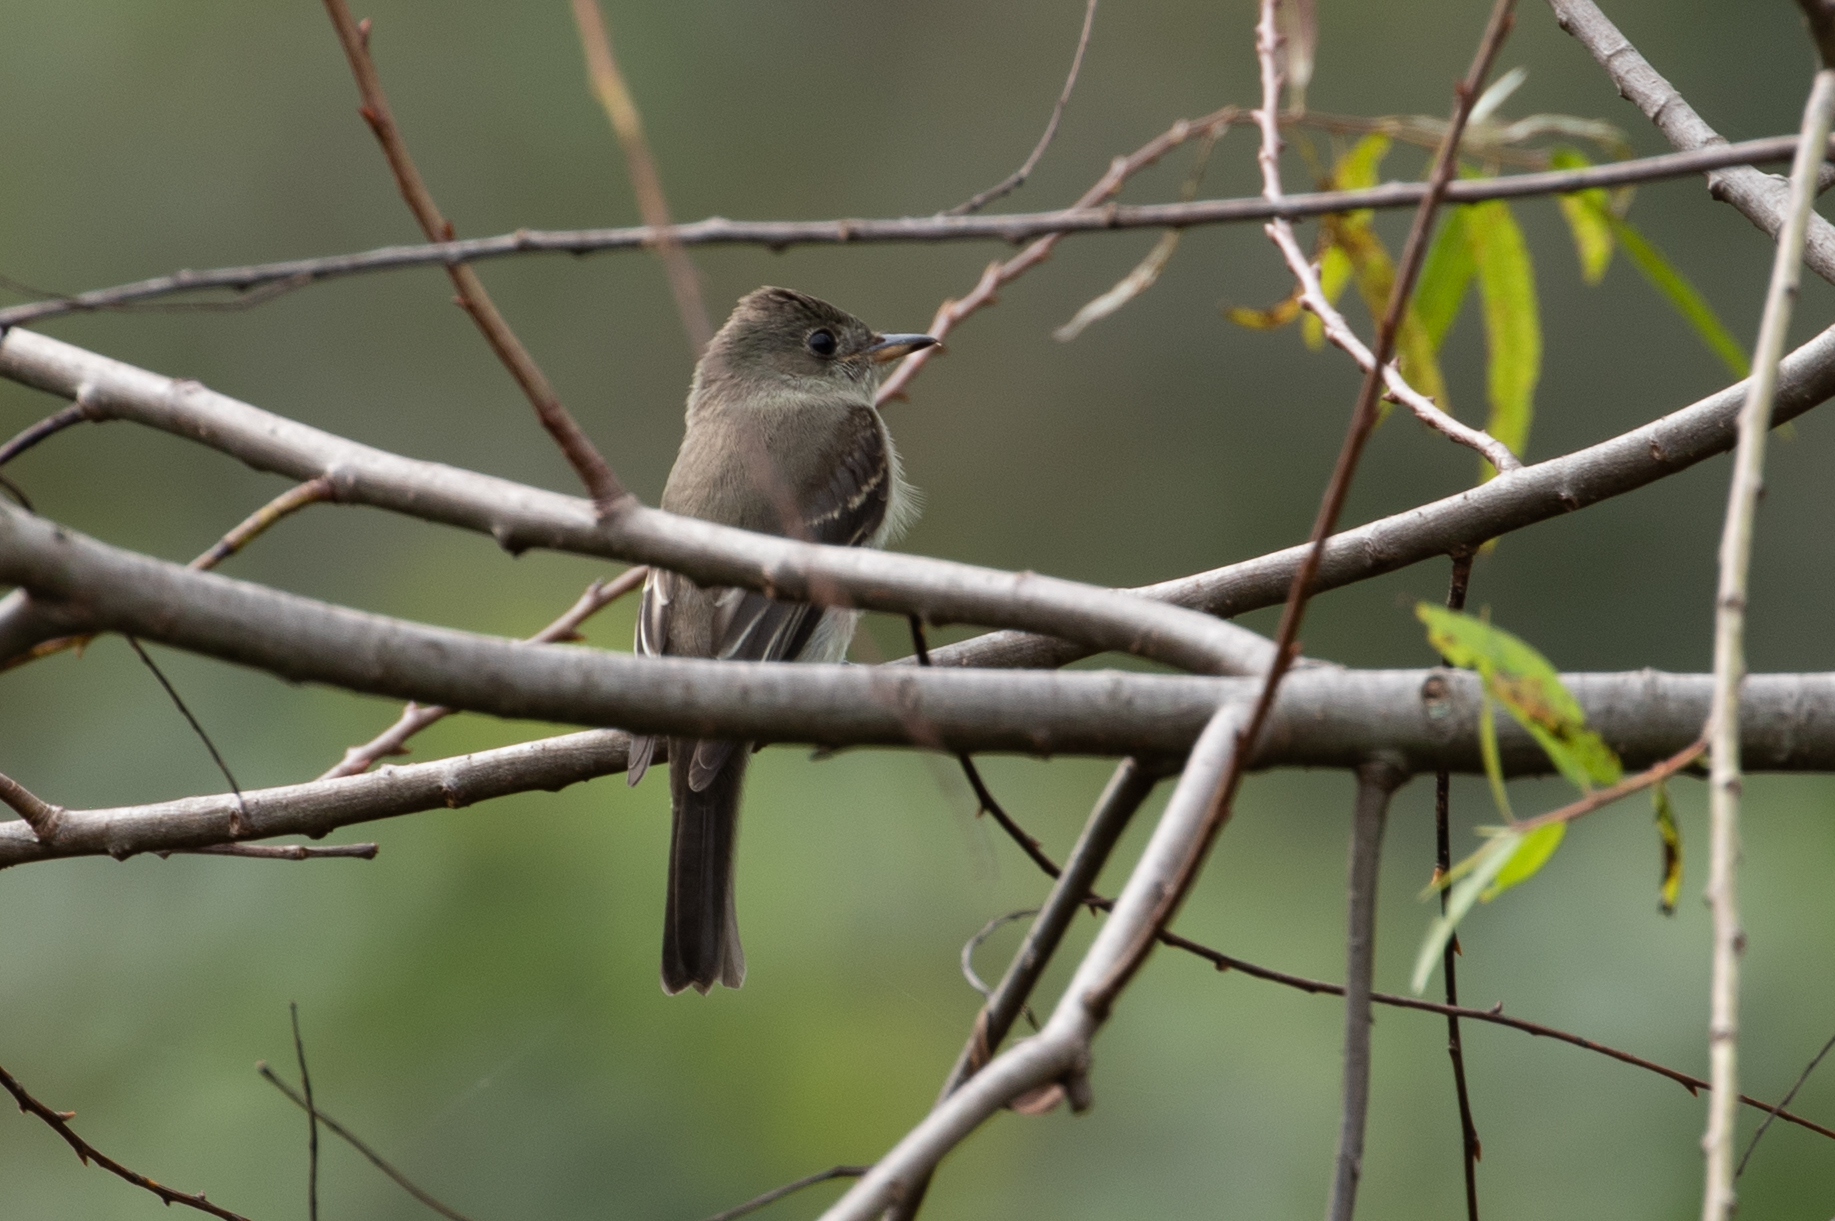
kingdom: Animalia
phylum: Chordata
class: Aves
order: Passeriformes
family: Tyrannidae
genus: Contopus
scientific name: Contopus virens
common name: Eastern wood-pewee
